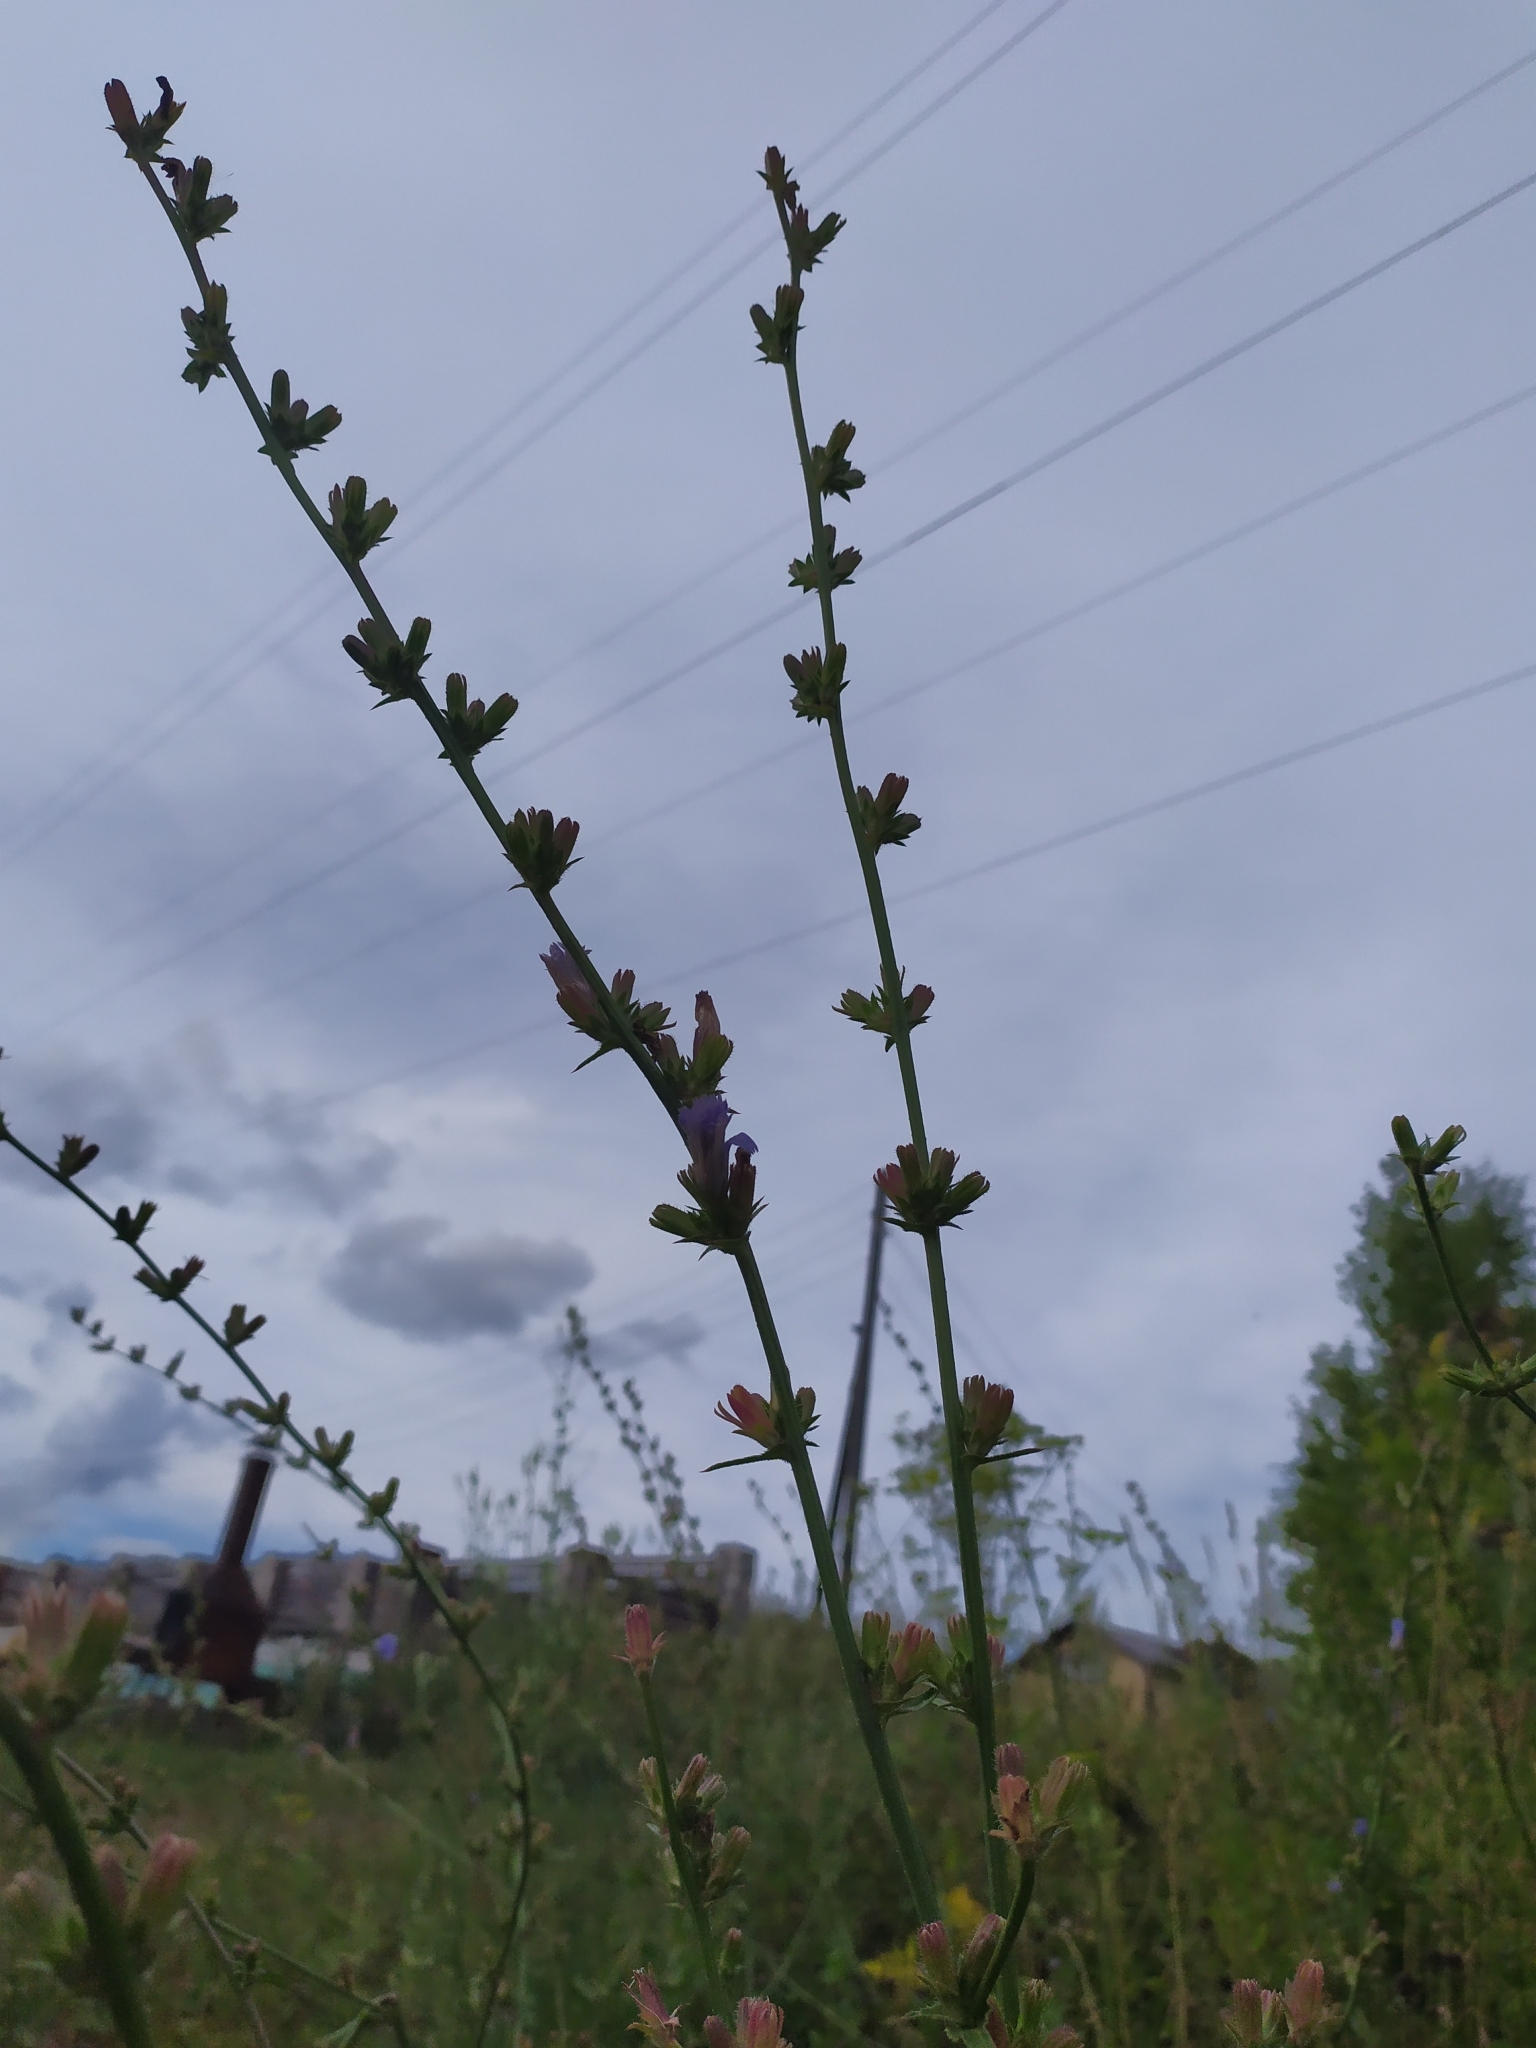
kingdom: Plantae
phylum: Tracheophyta
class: Magnoliopsida
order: Asterales
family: Asteraceae
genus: Cichorium
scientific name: Cichorium intybus
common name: Chicory
